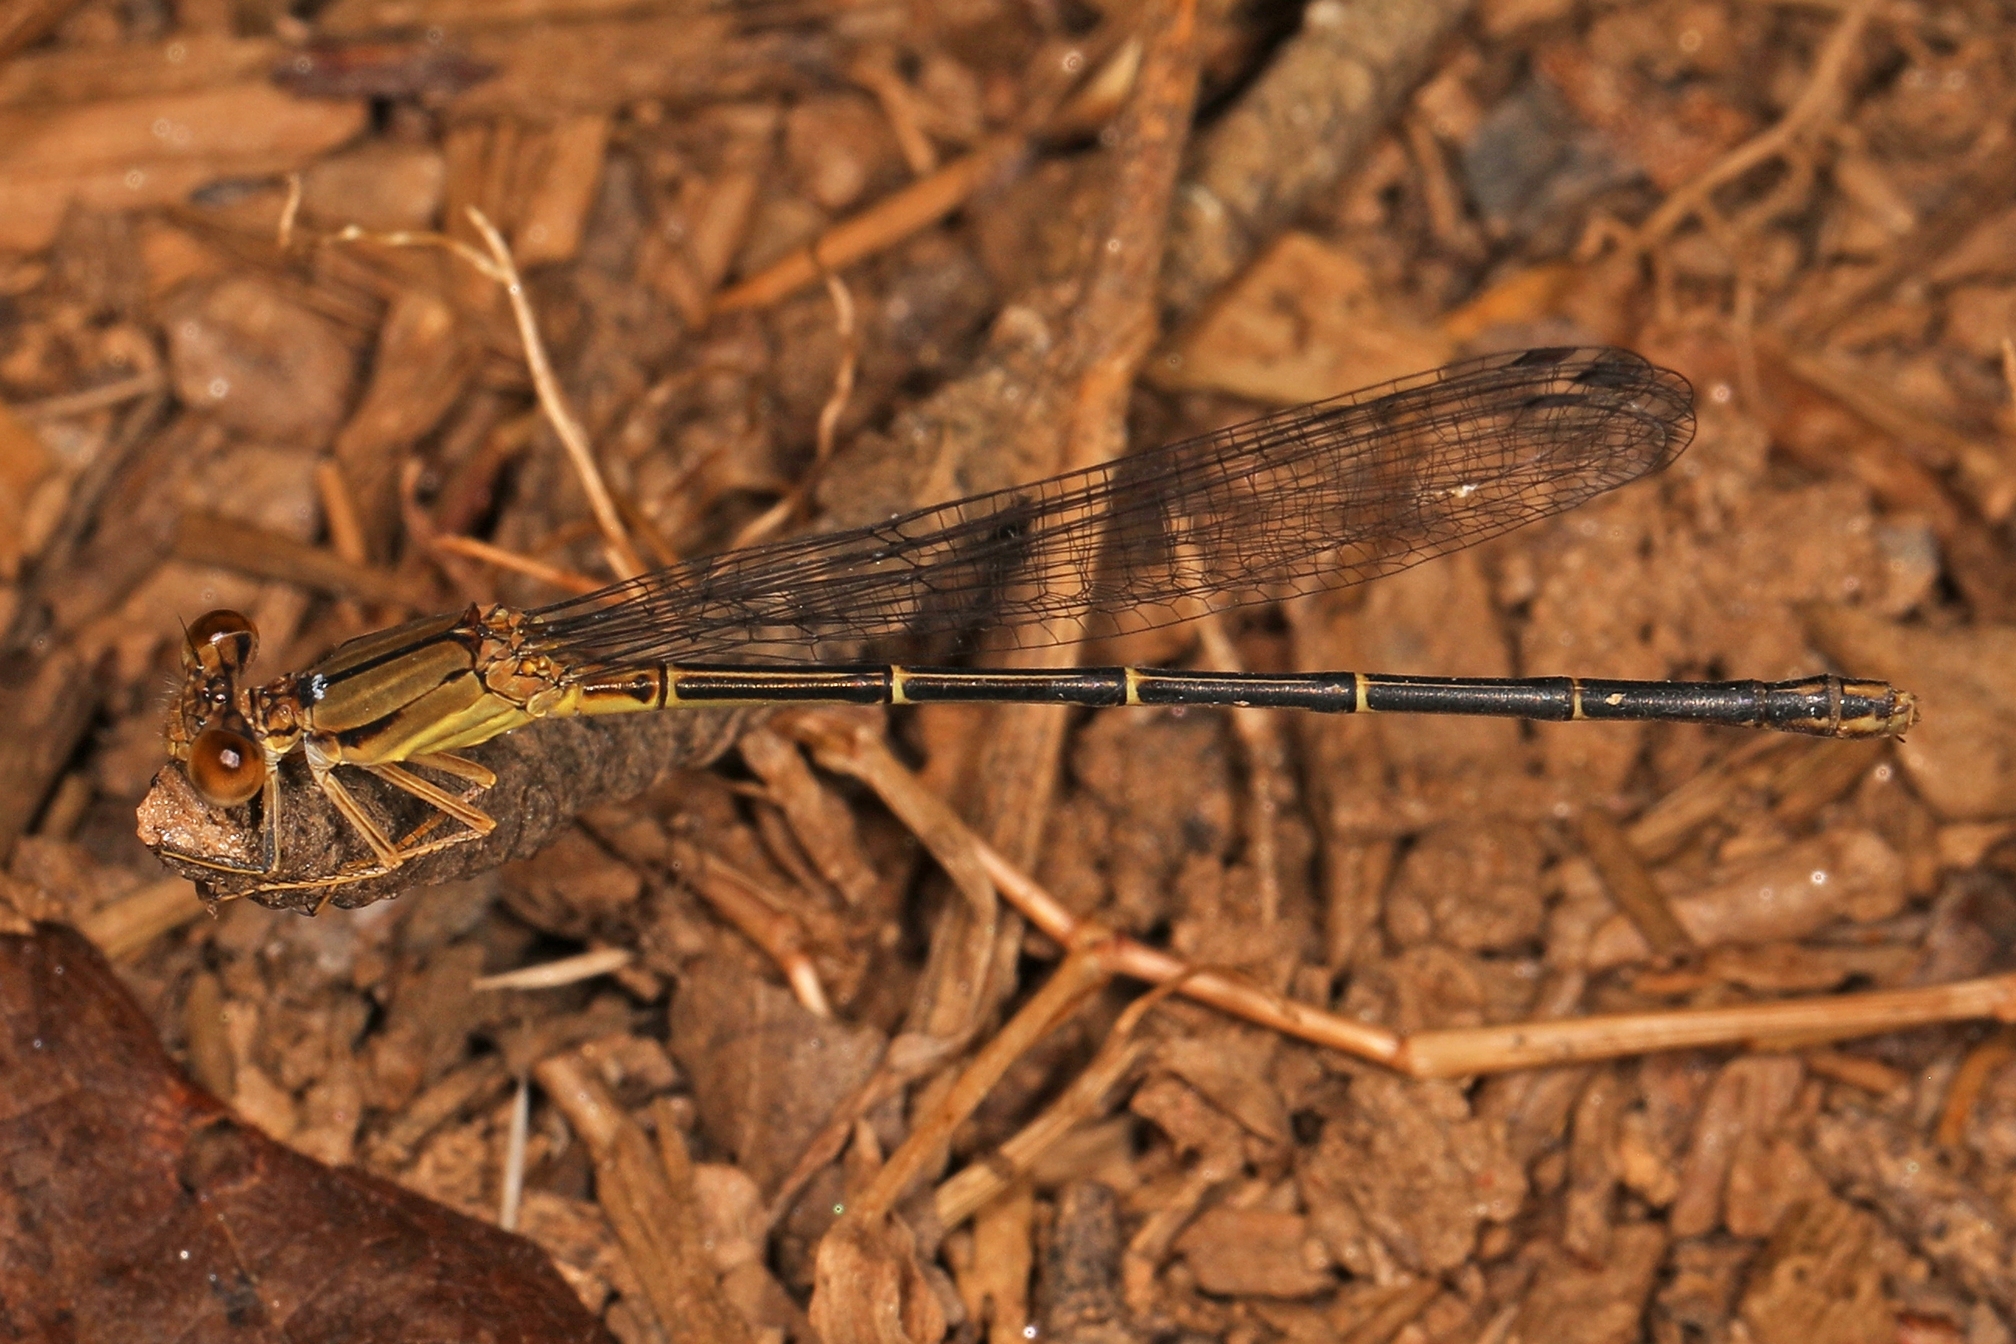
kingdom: Animalia
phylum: Arthropoda
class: Insecta
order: Odonata
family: Coenagrionidae
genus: Argia
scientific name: Argia apicalis
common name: Blue-fronted dancer
